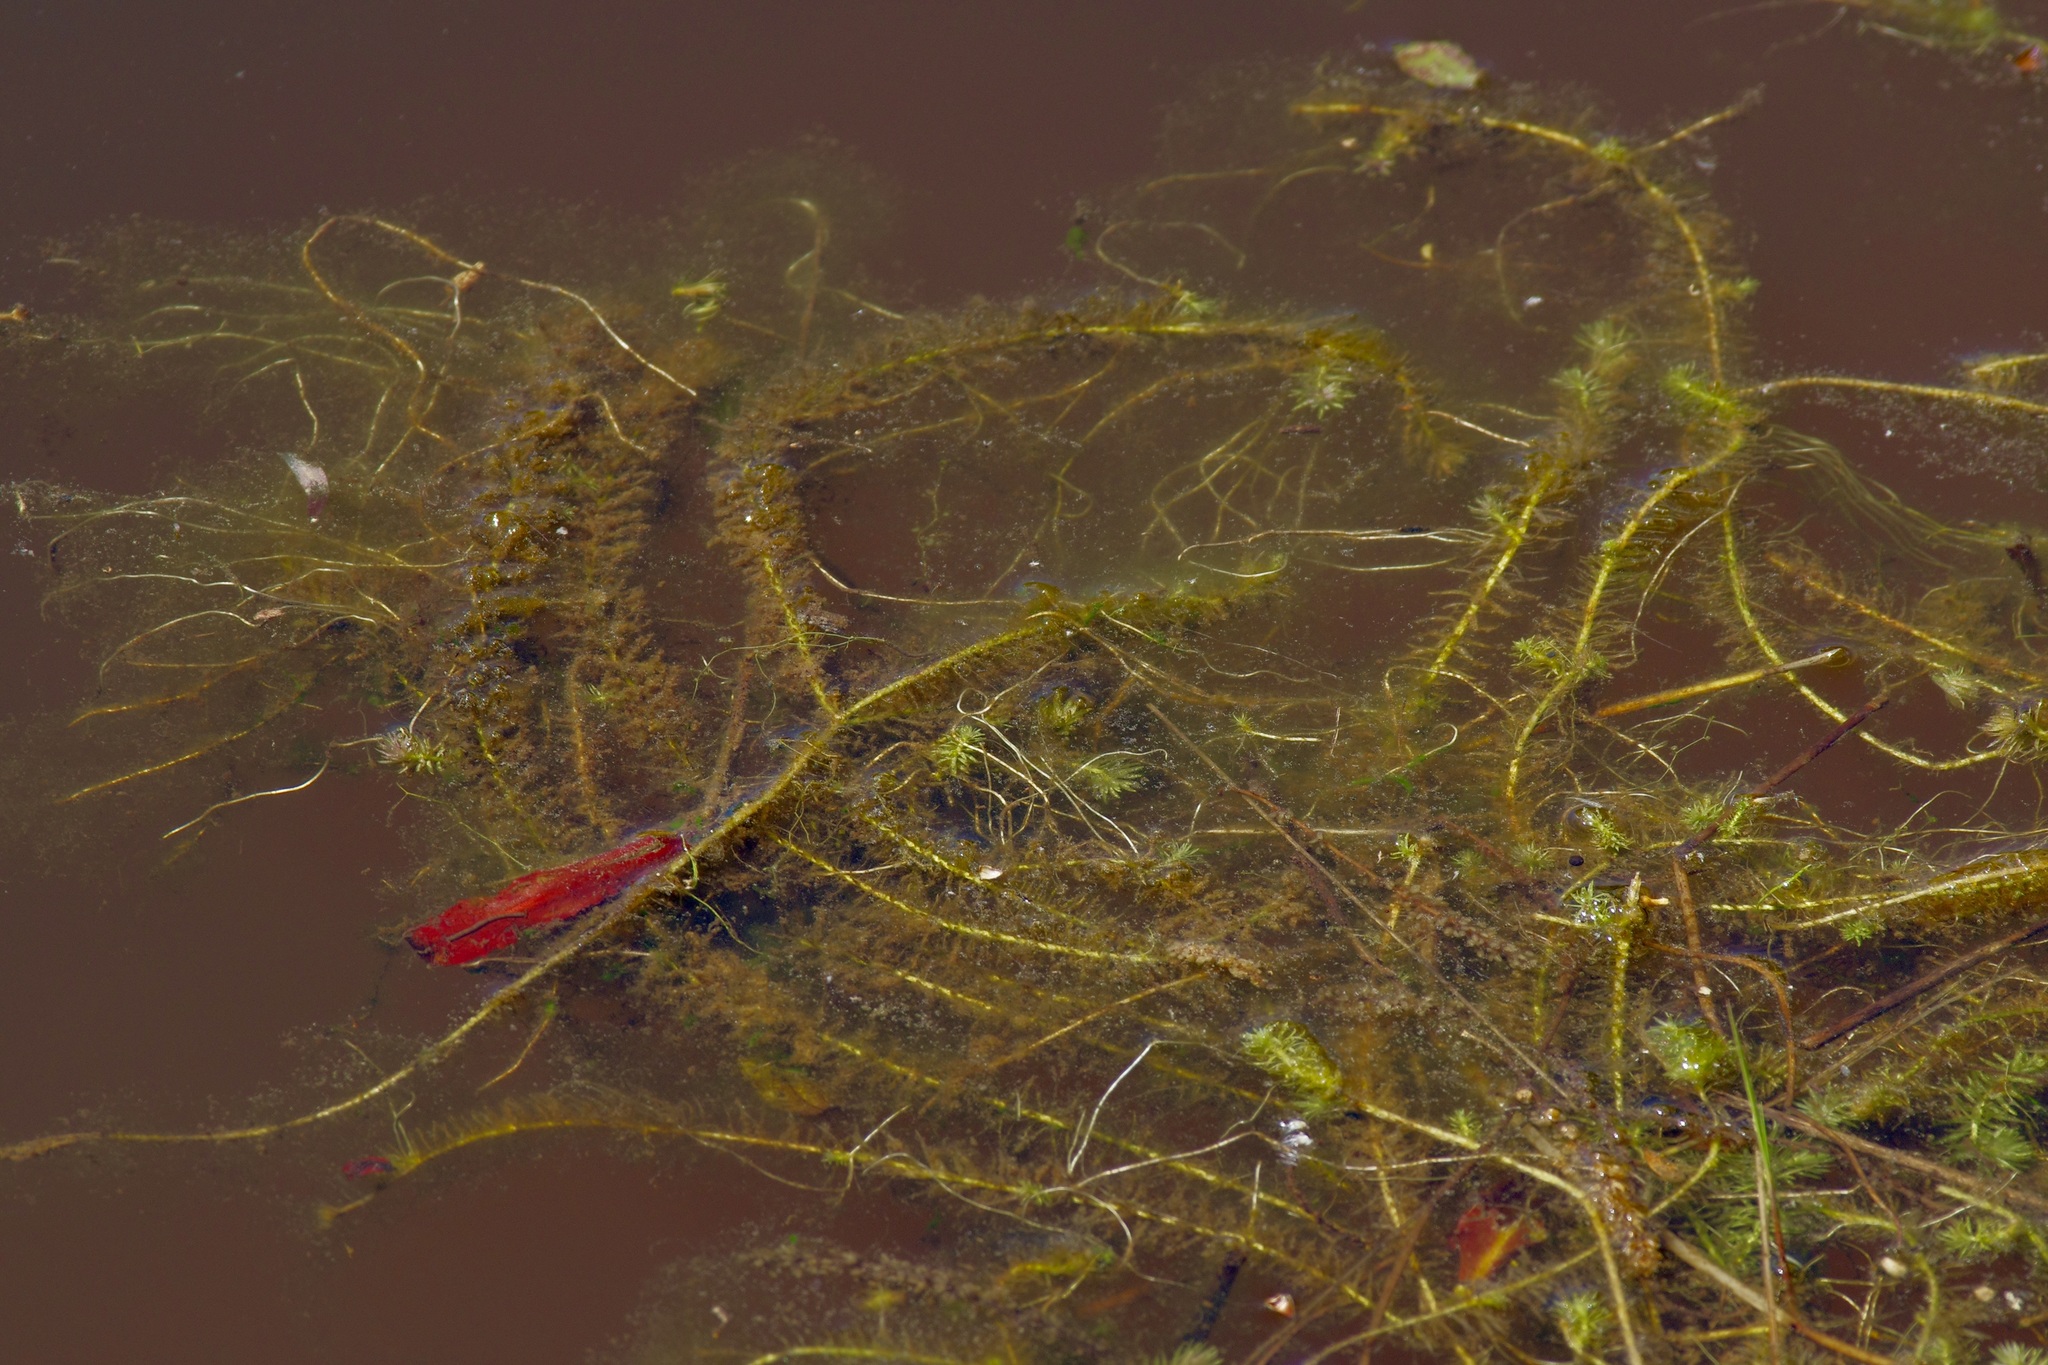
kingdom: Plantae
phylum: Tracheophyta
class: Liliopsida
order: Poales
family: Mayacaceae
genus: Mayaca
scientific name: Mayaca fluviatilis
